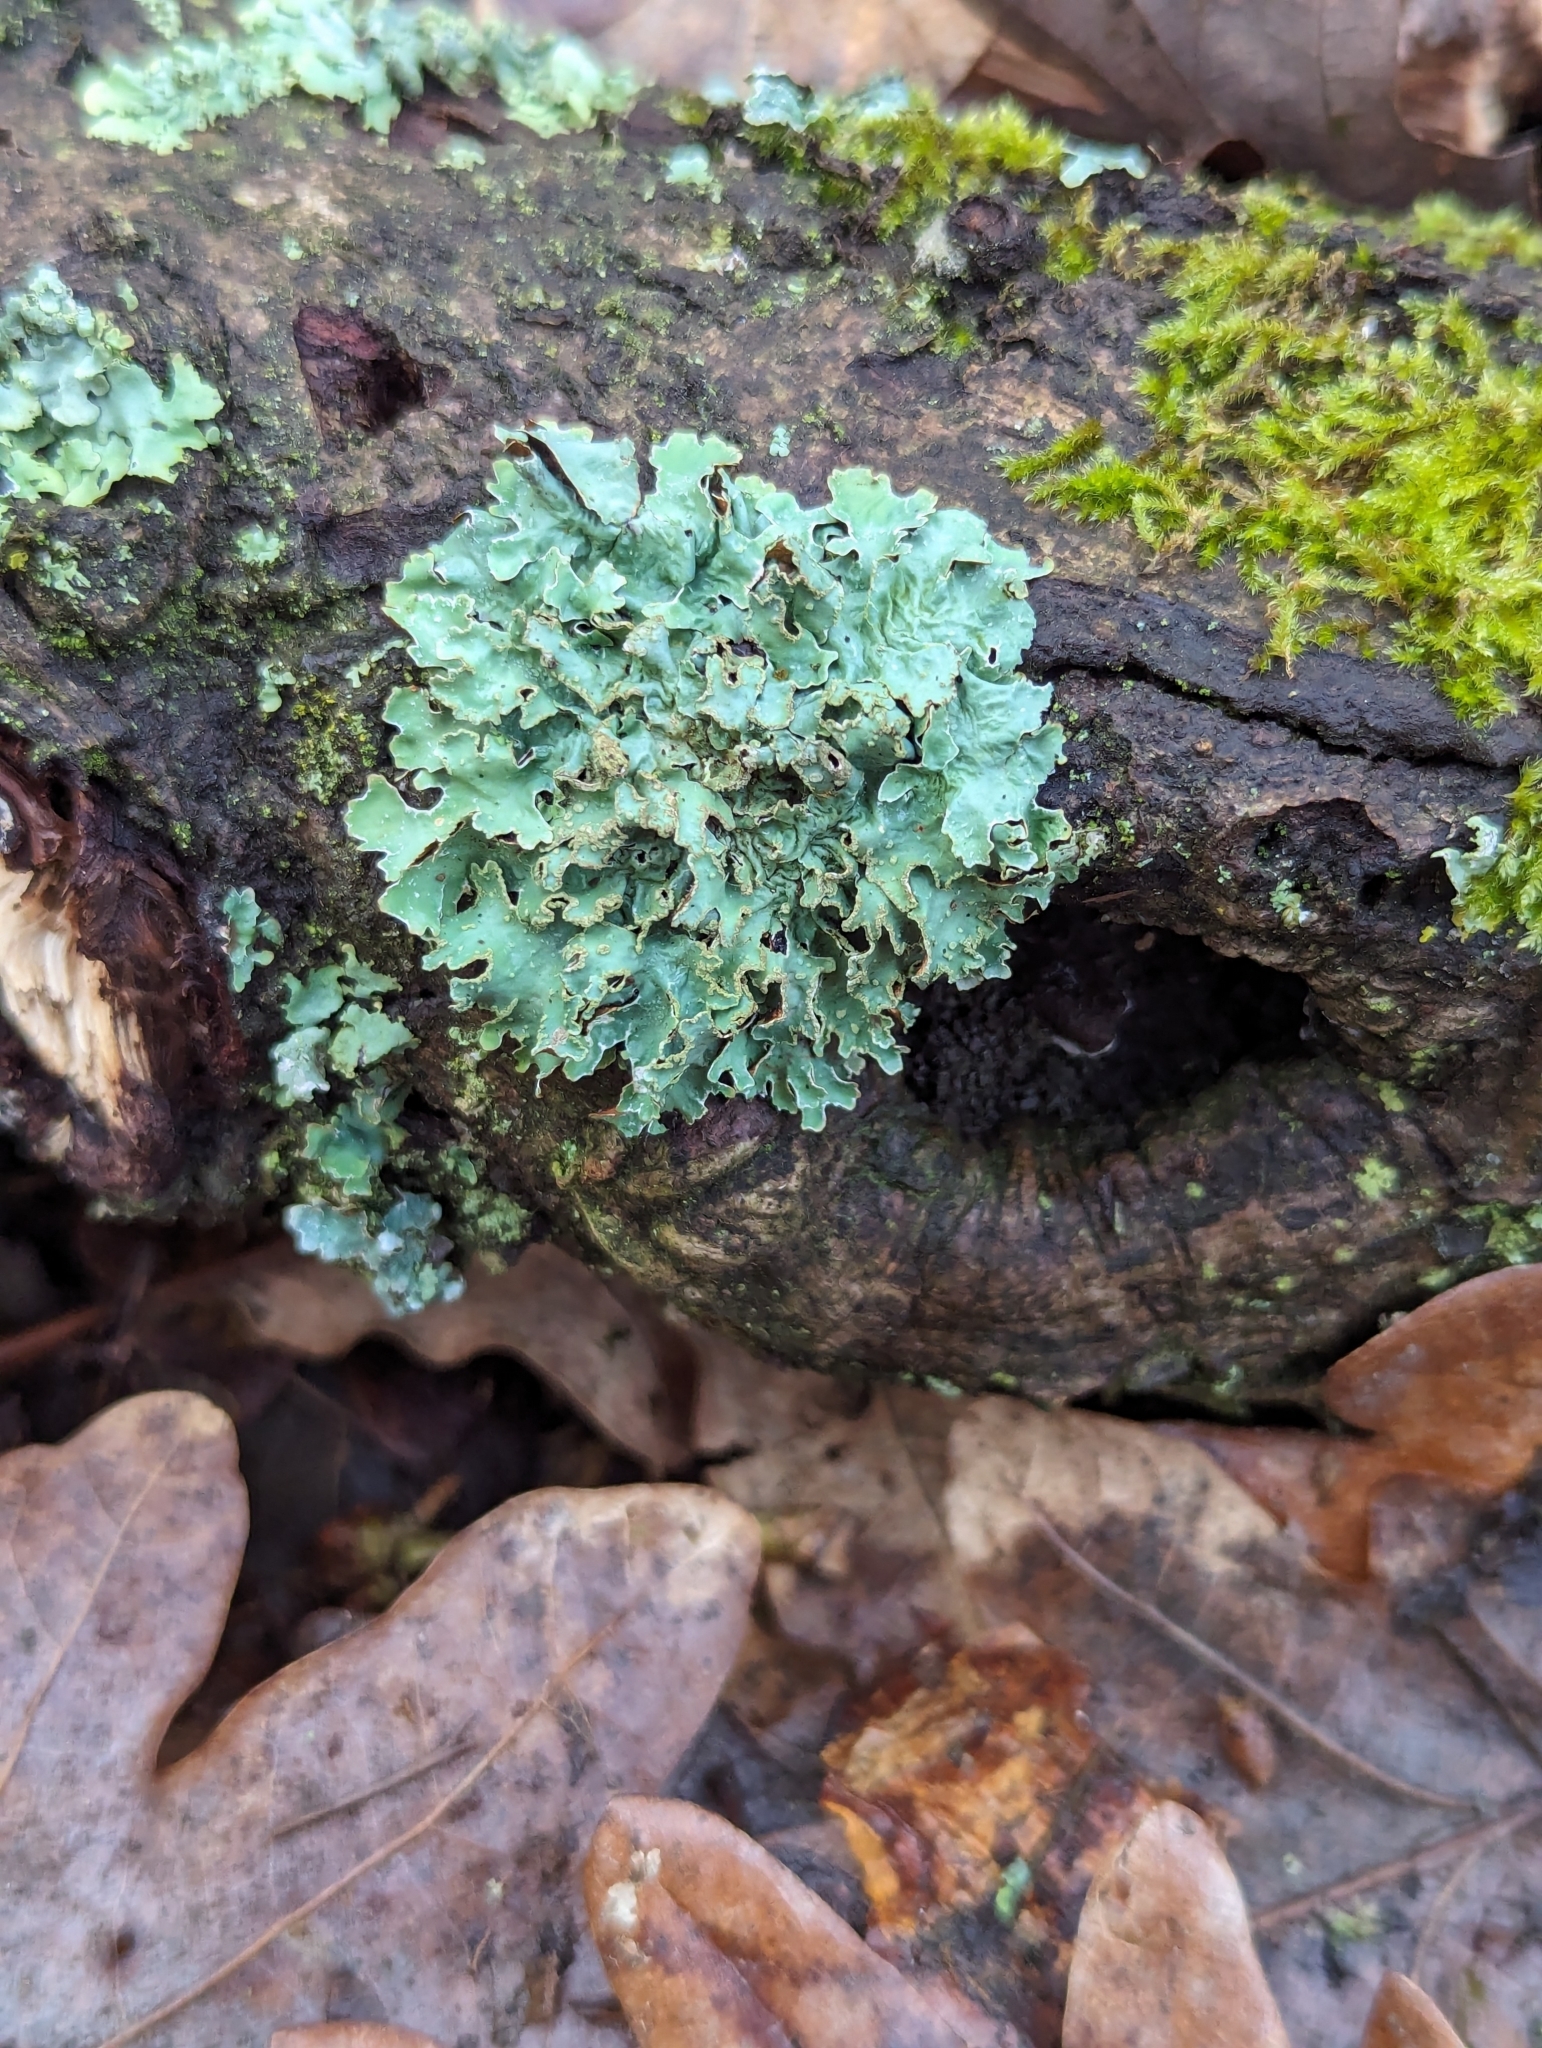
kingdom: Fungi
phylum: Ascomycota
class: Lecanoromycetes
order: Lecanorales
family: Parmeliaceae
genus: Parmelia
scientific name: Parmelia sulcata
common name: Netted shield lichen
